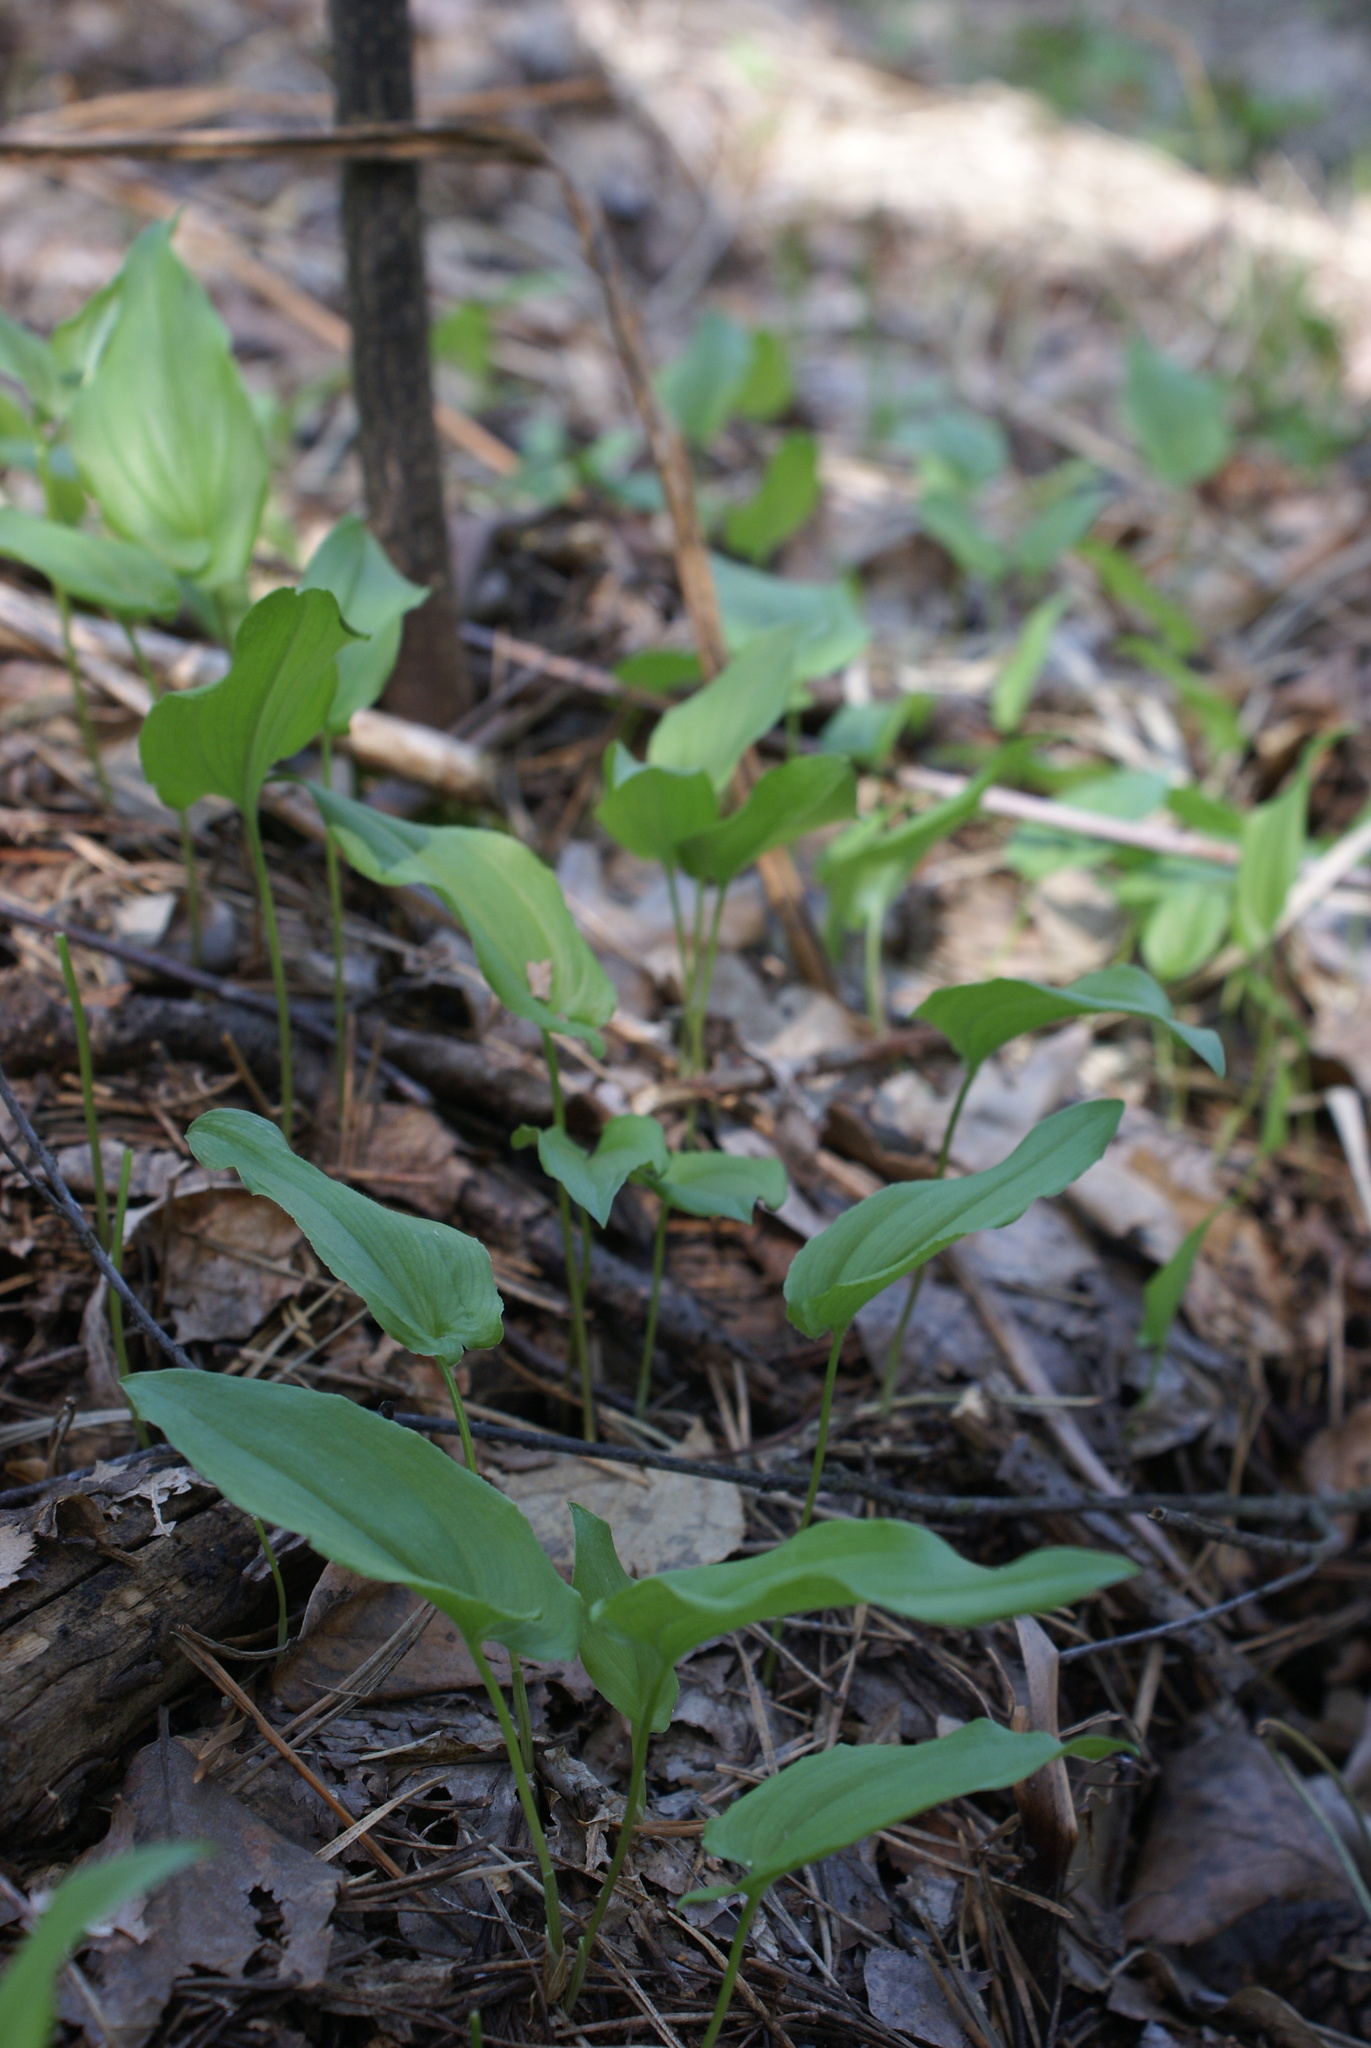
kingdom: Plantae
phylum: Tracheophyta
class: Liliopsida
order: Asparagales
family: Asparagaceae
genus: Maianthemum
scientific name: Maianthemum bifolium
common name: May lily
